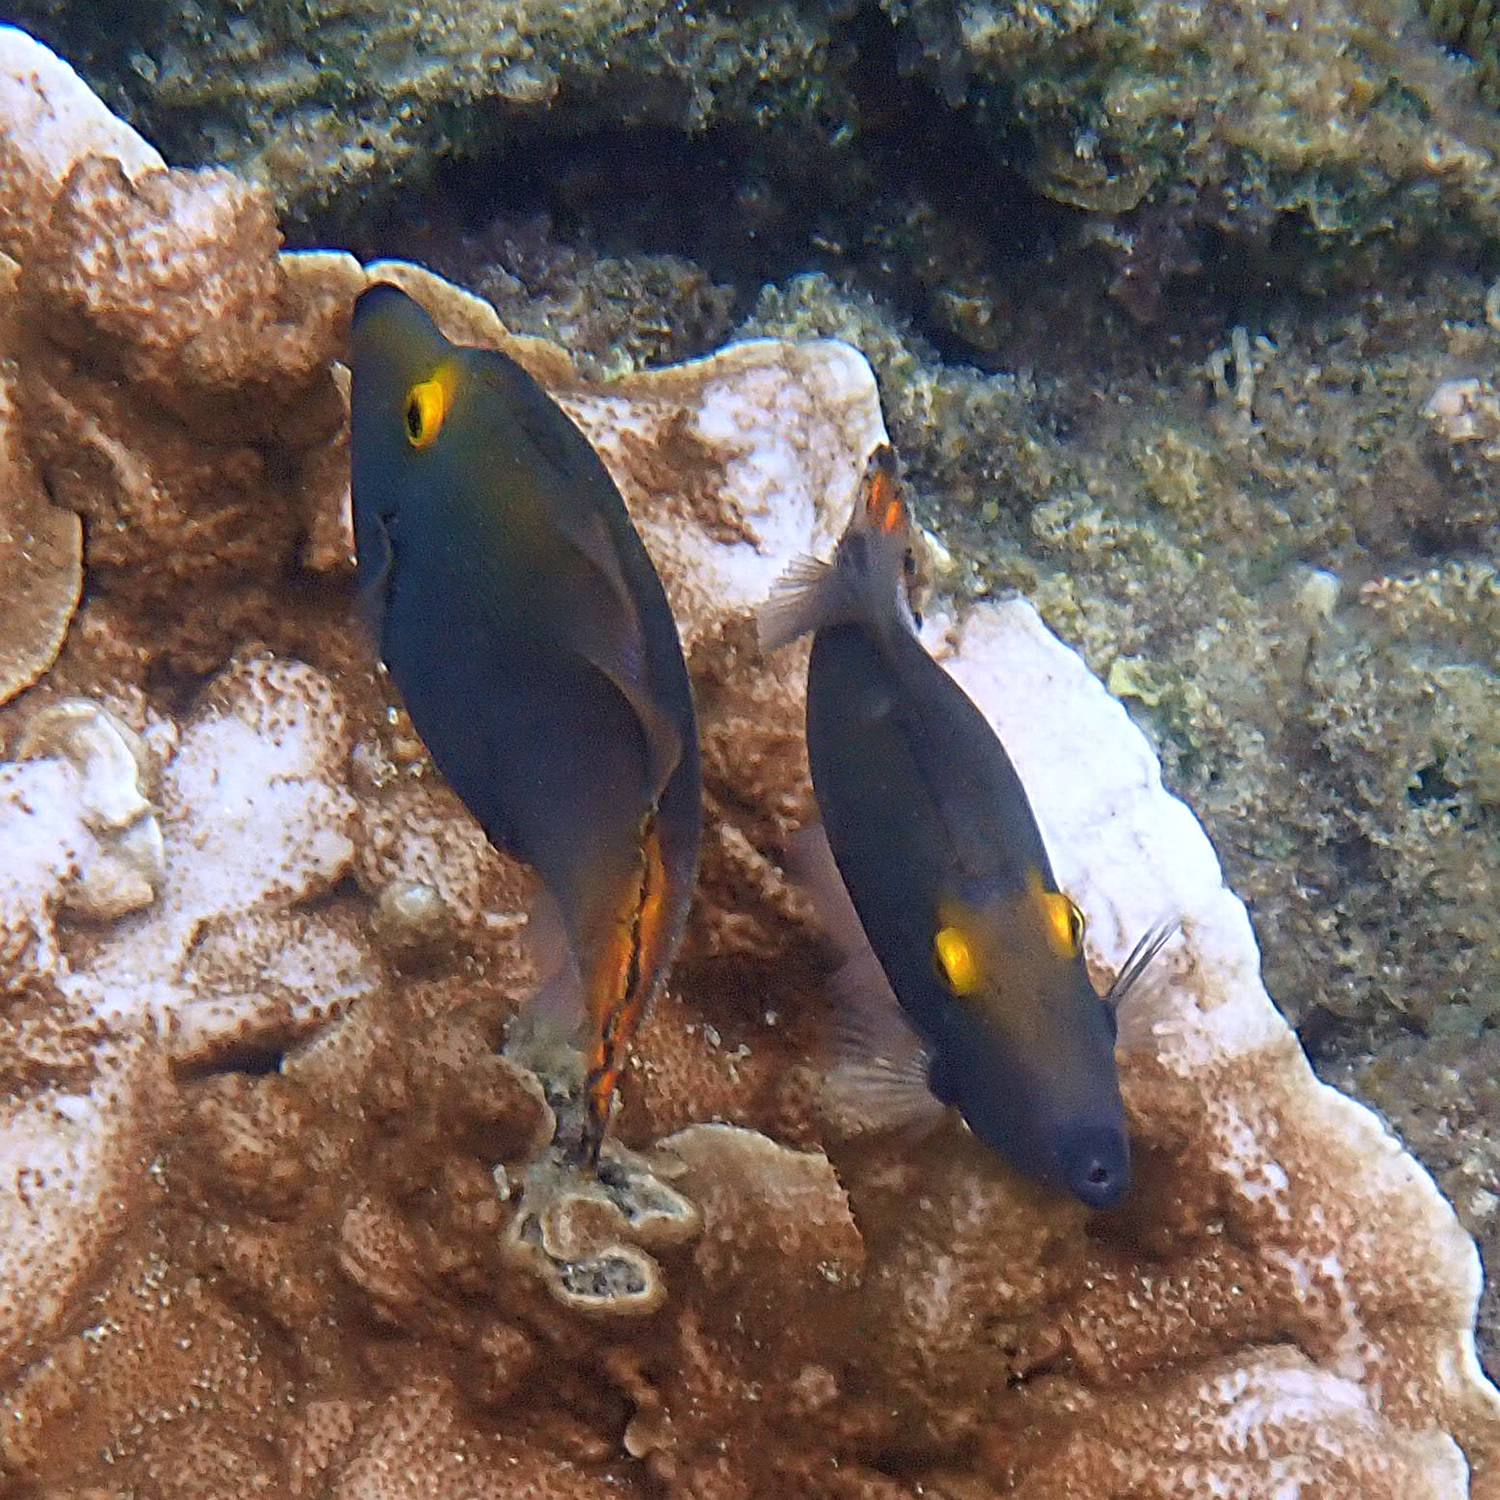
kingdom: Animalia
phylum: Chordata
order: Tetraodontiformes
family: Monacanthidae
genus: Pervagor
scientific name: Pervagor alternans
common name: Yelloweye filefish
